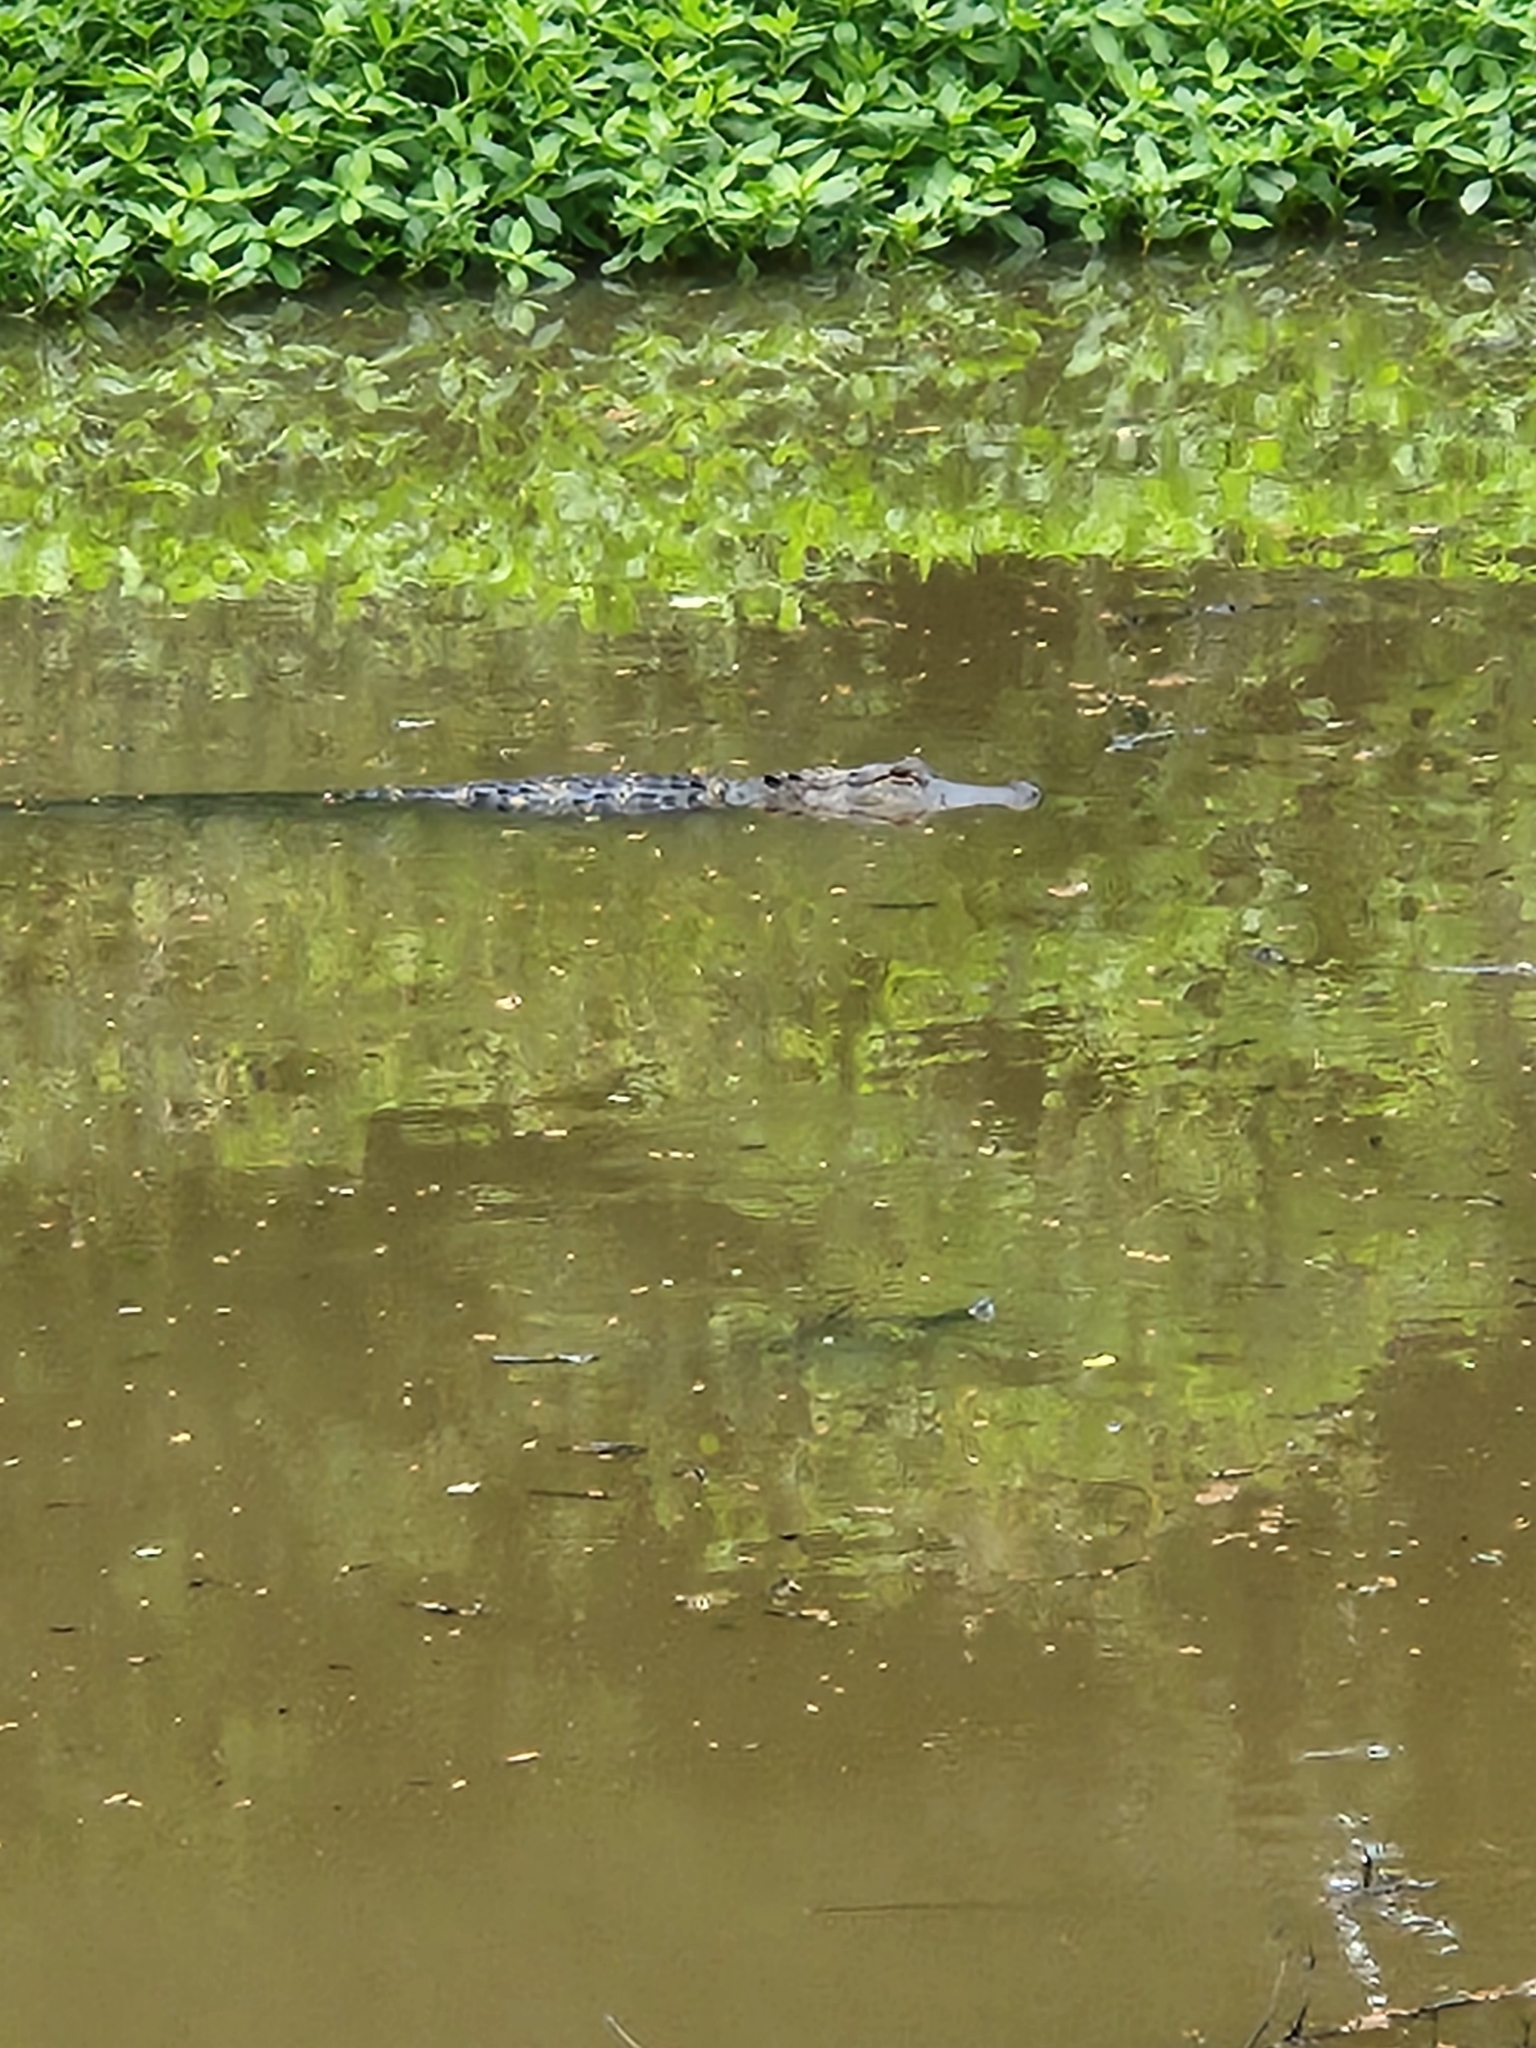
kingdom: Animalia
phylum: Chordata
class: Crocodylia
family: Alligatoridae
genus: Alligator
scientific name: Alligator mississippiensis
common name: American alligator
